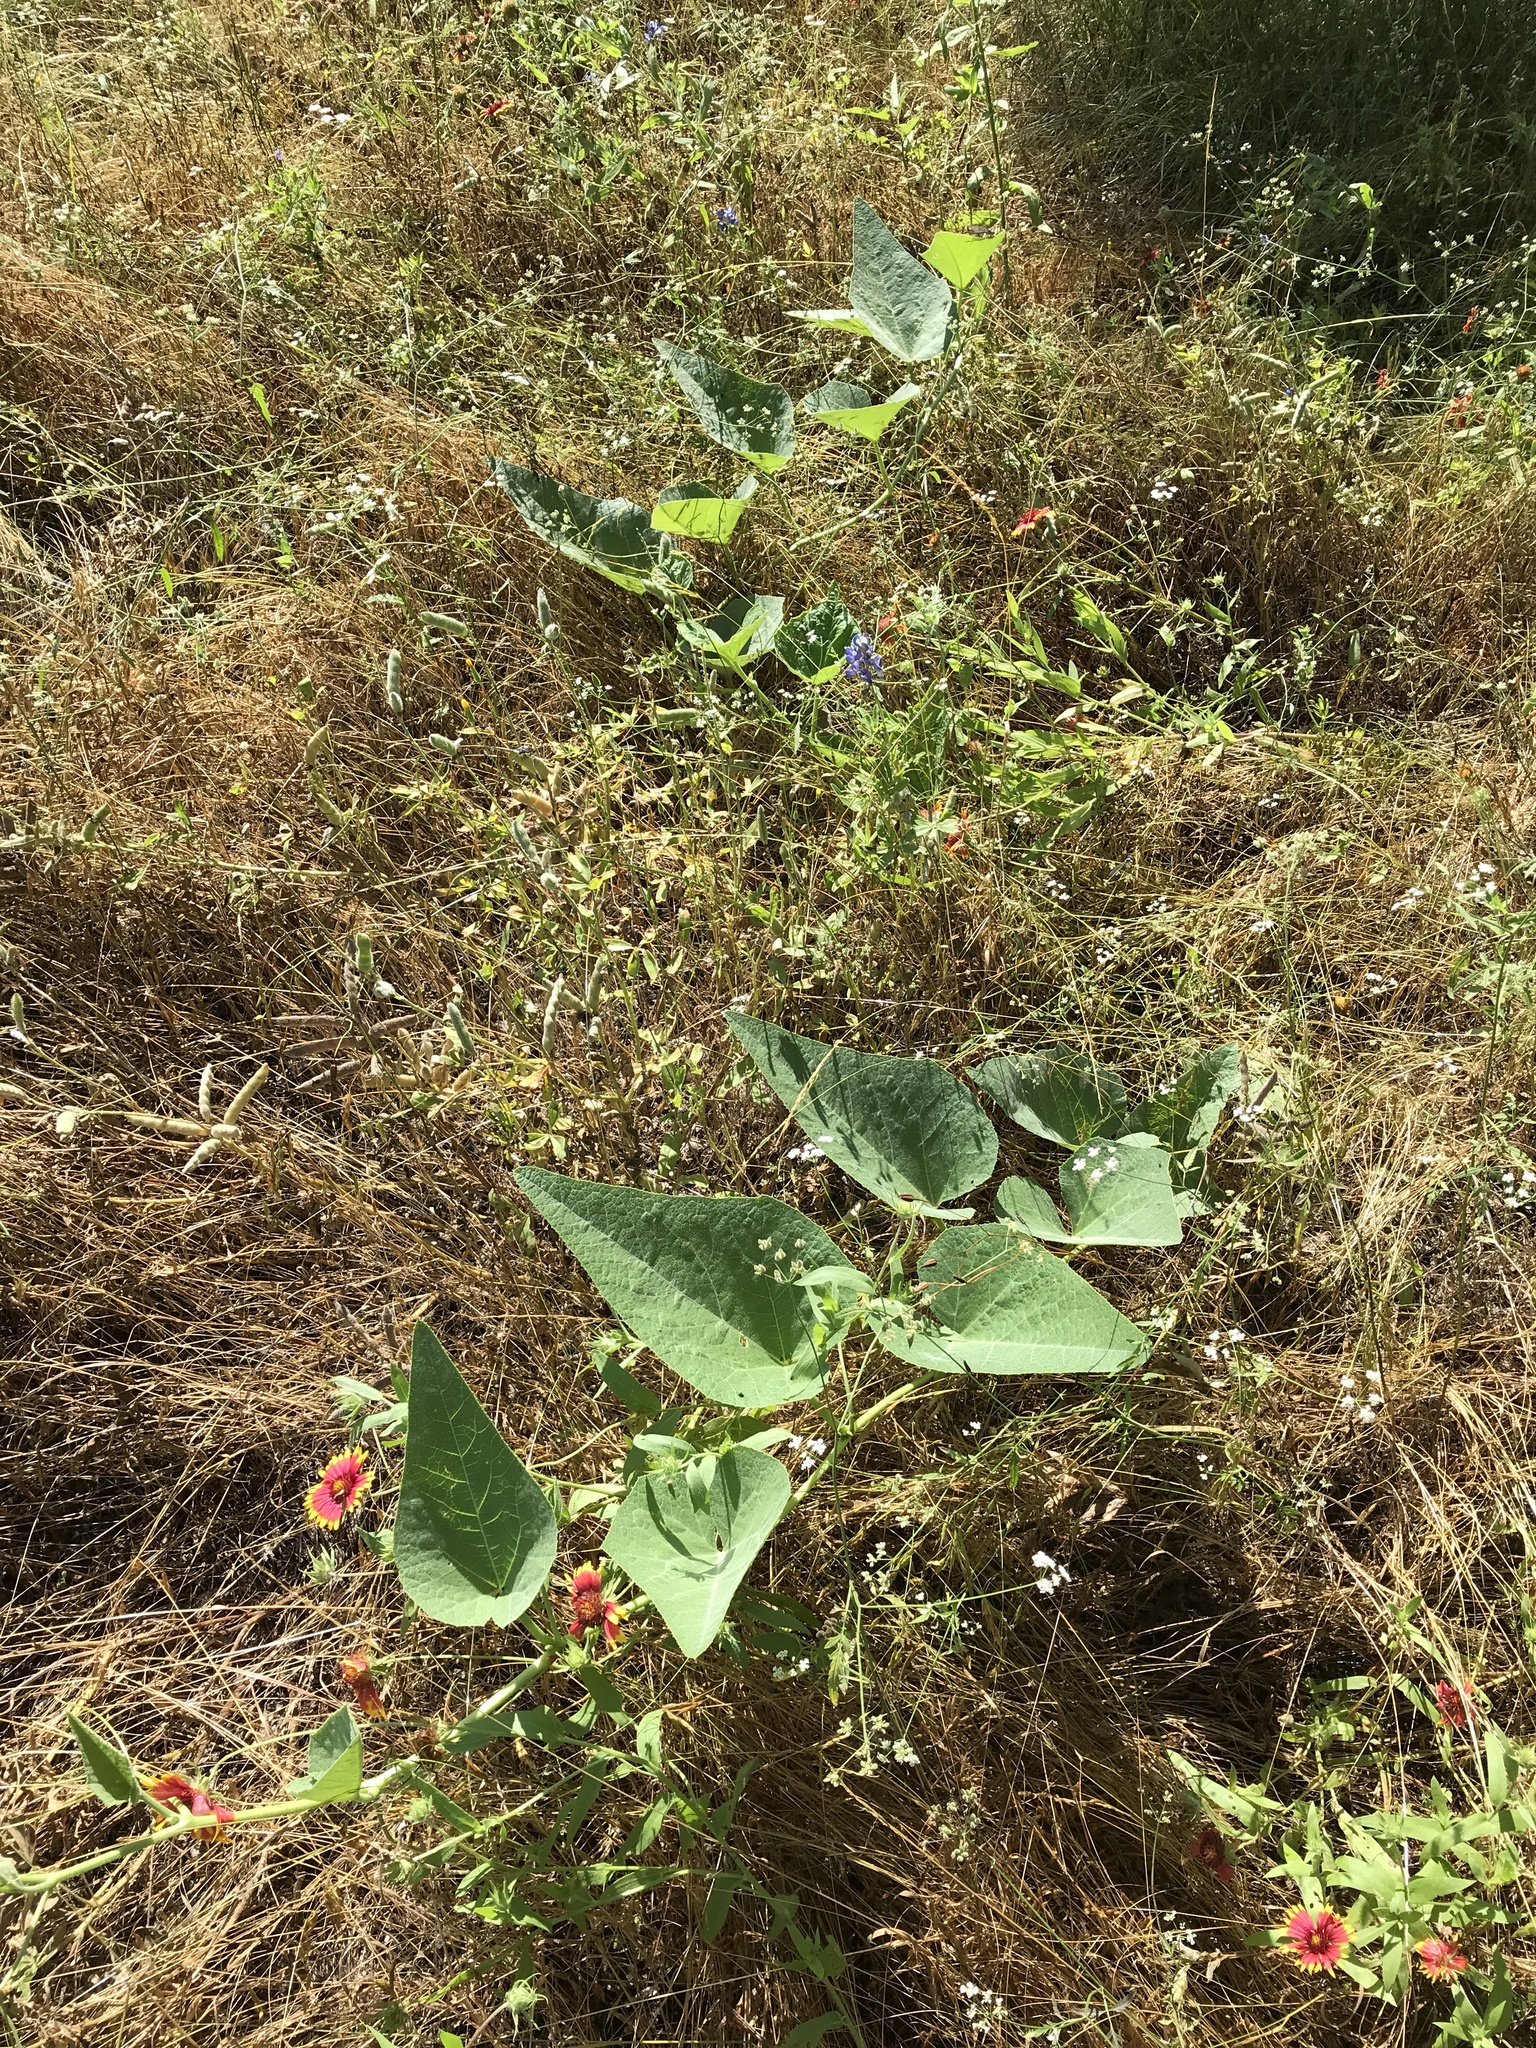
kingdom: Plantae
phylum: Tracheophyta
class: Magnoliopsida
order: Cucurbitales
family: Cucurbitaceae
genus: Cucurbita
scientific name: Cucurbita foetidissima
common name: Buffalo gourd
